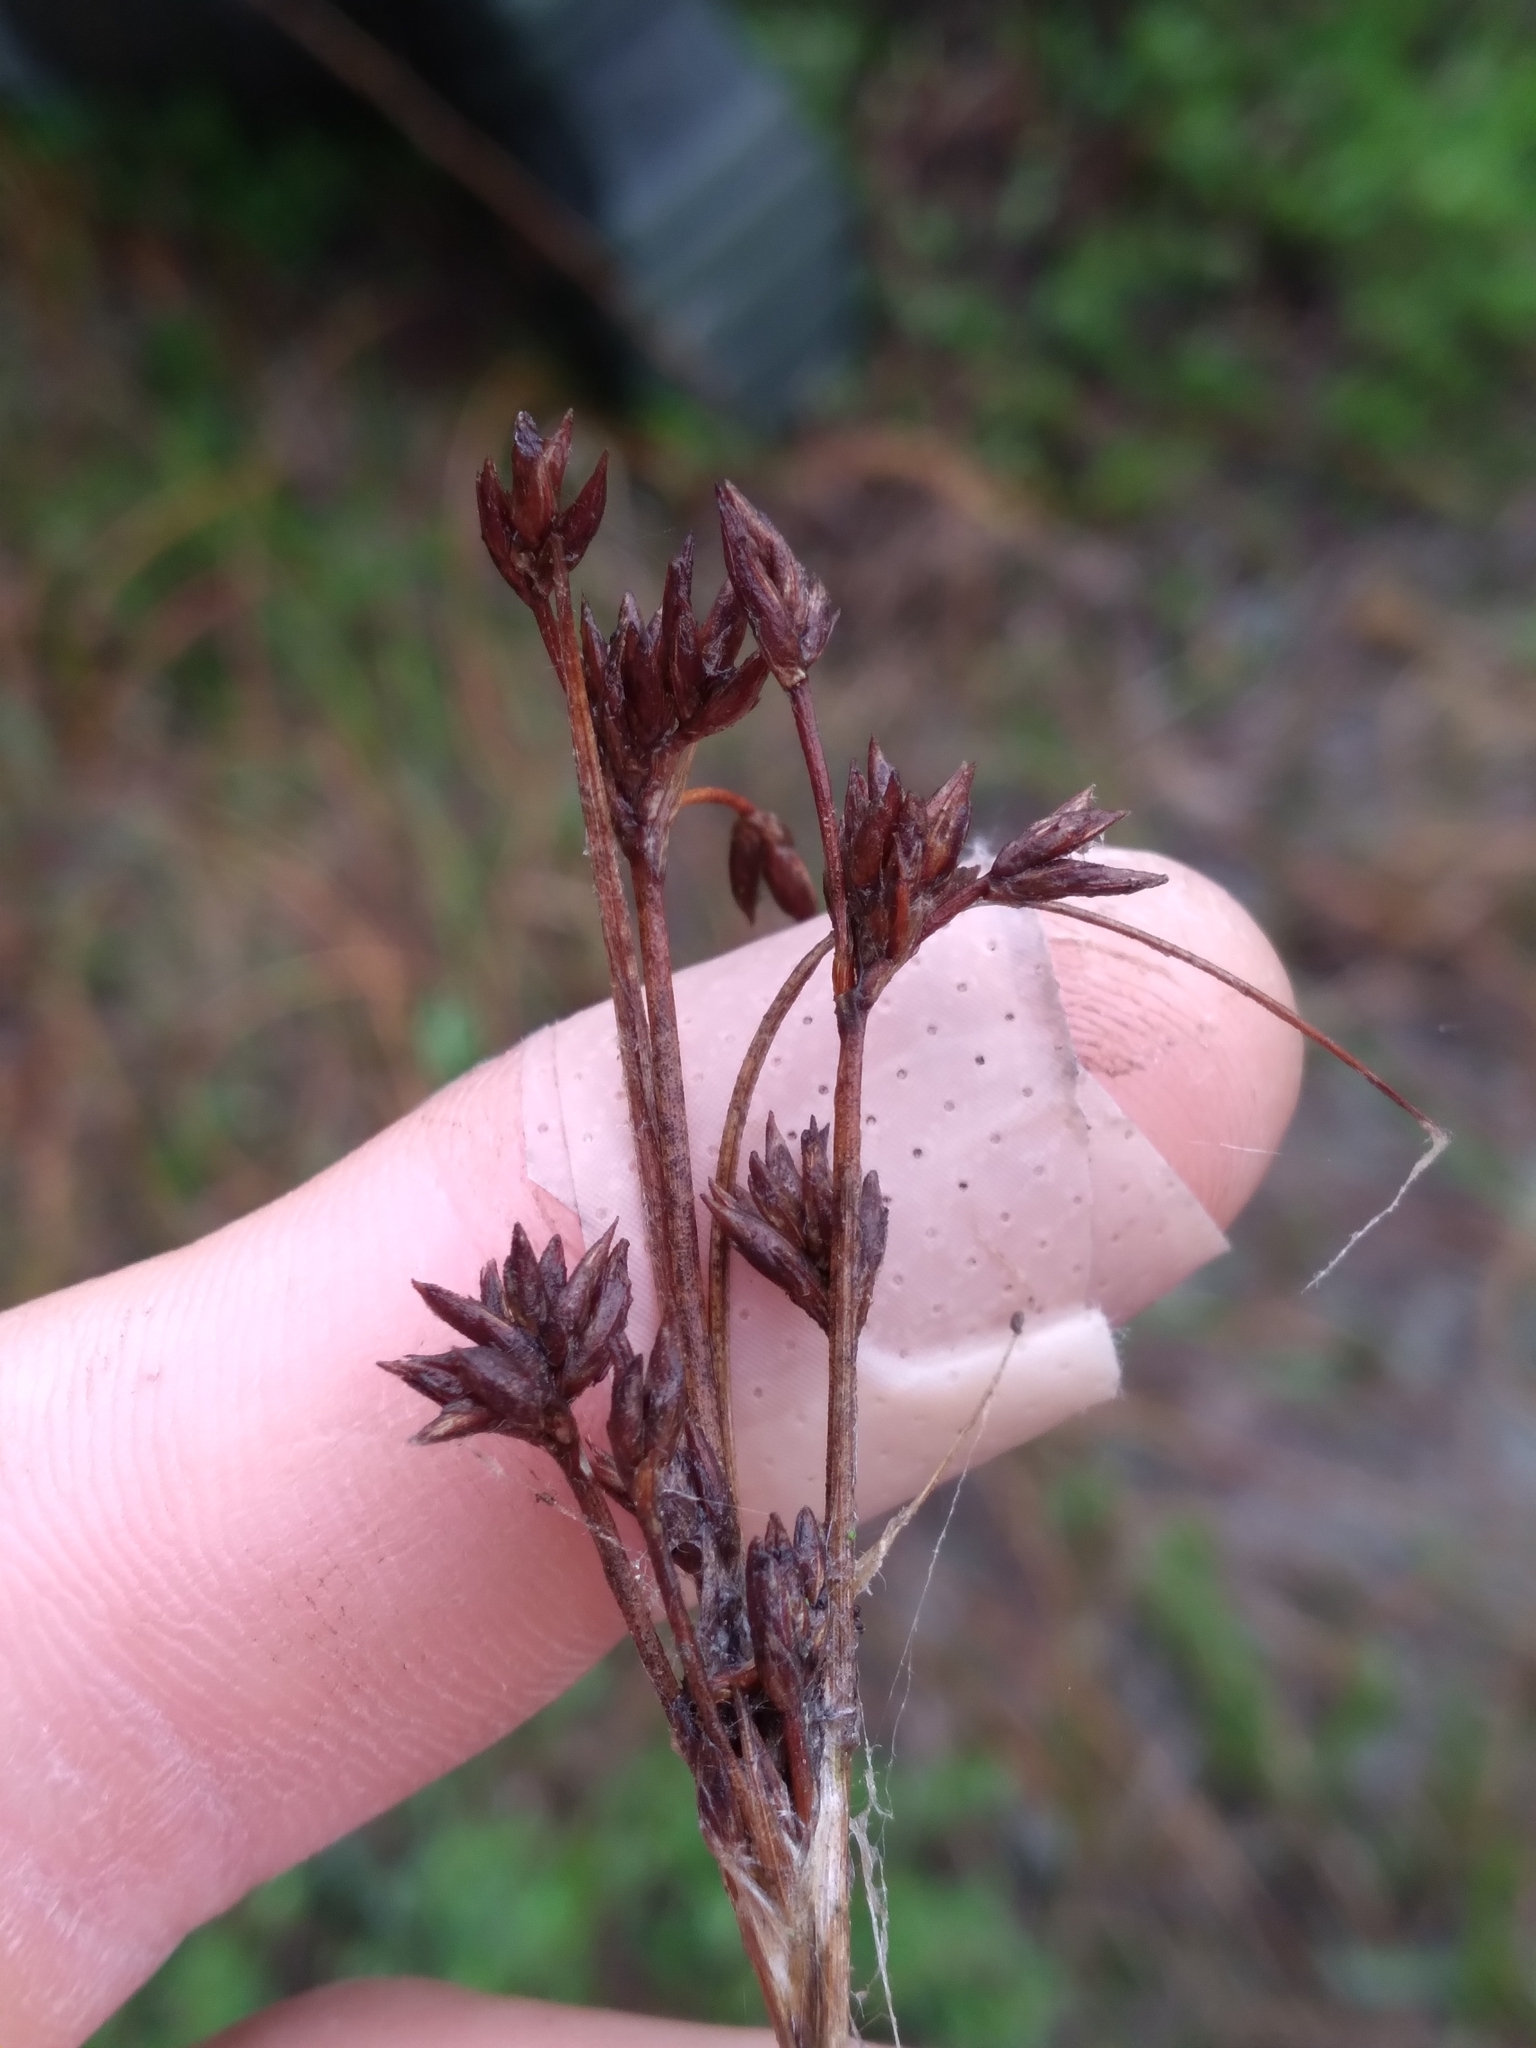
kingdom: Plantae
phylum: Tracheophyta
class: Liliopsida
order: Poales
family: Cyperaceae
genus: Cladium
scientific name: Cladium mariscoides
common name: Smooth sawgrass
